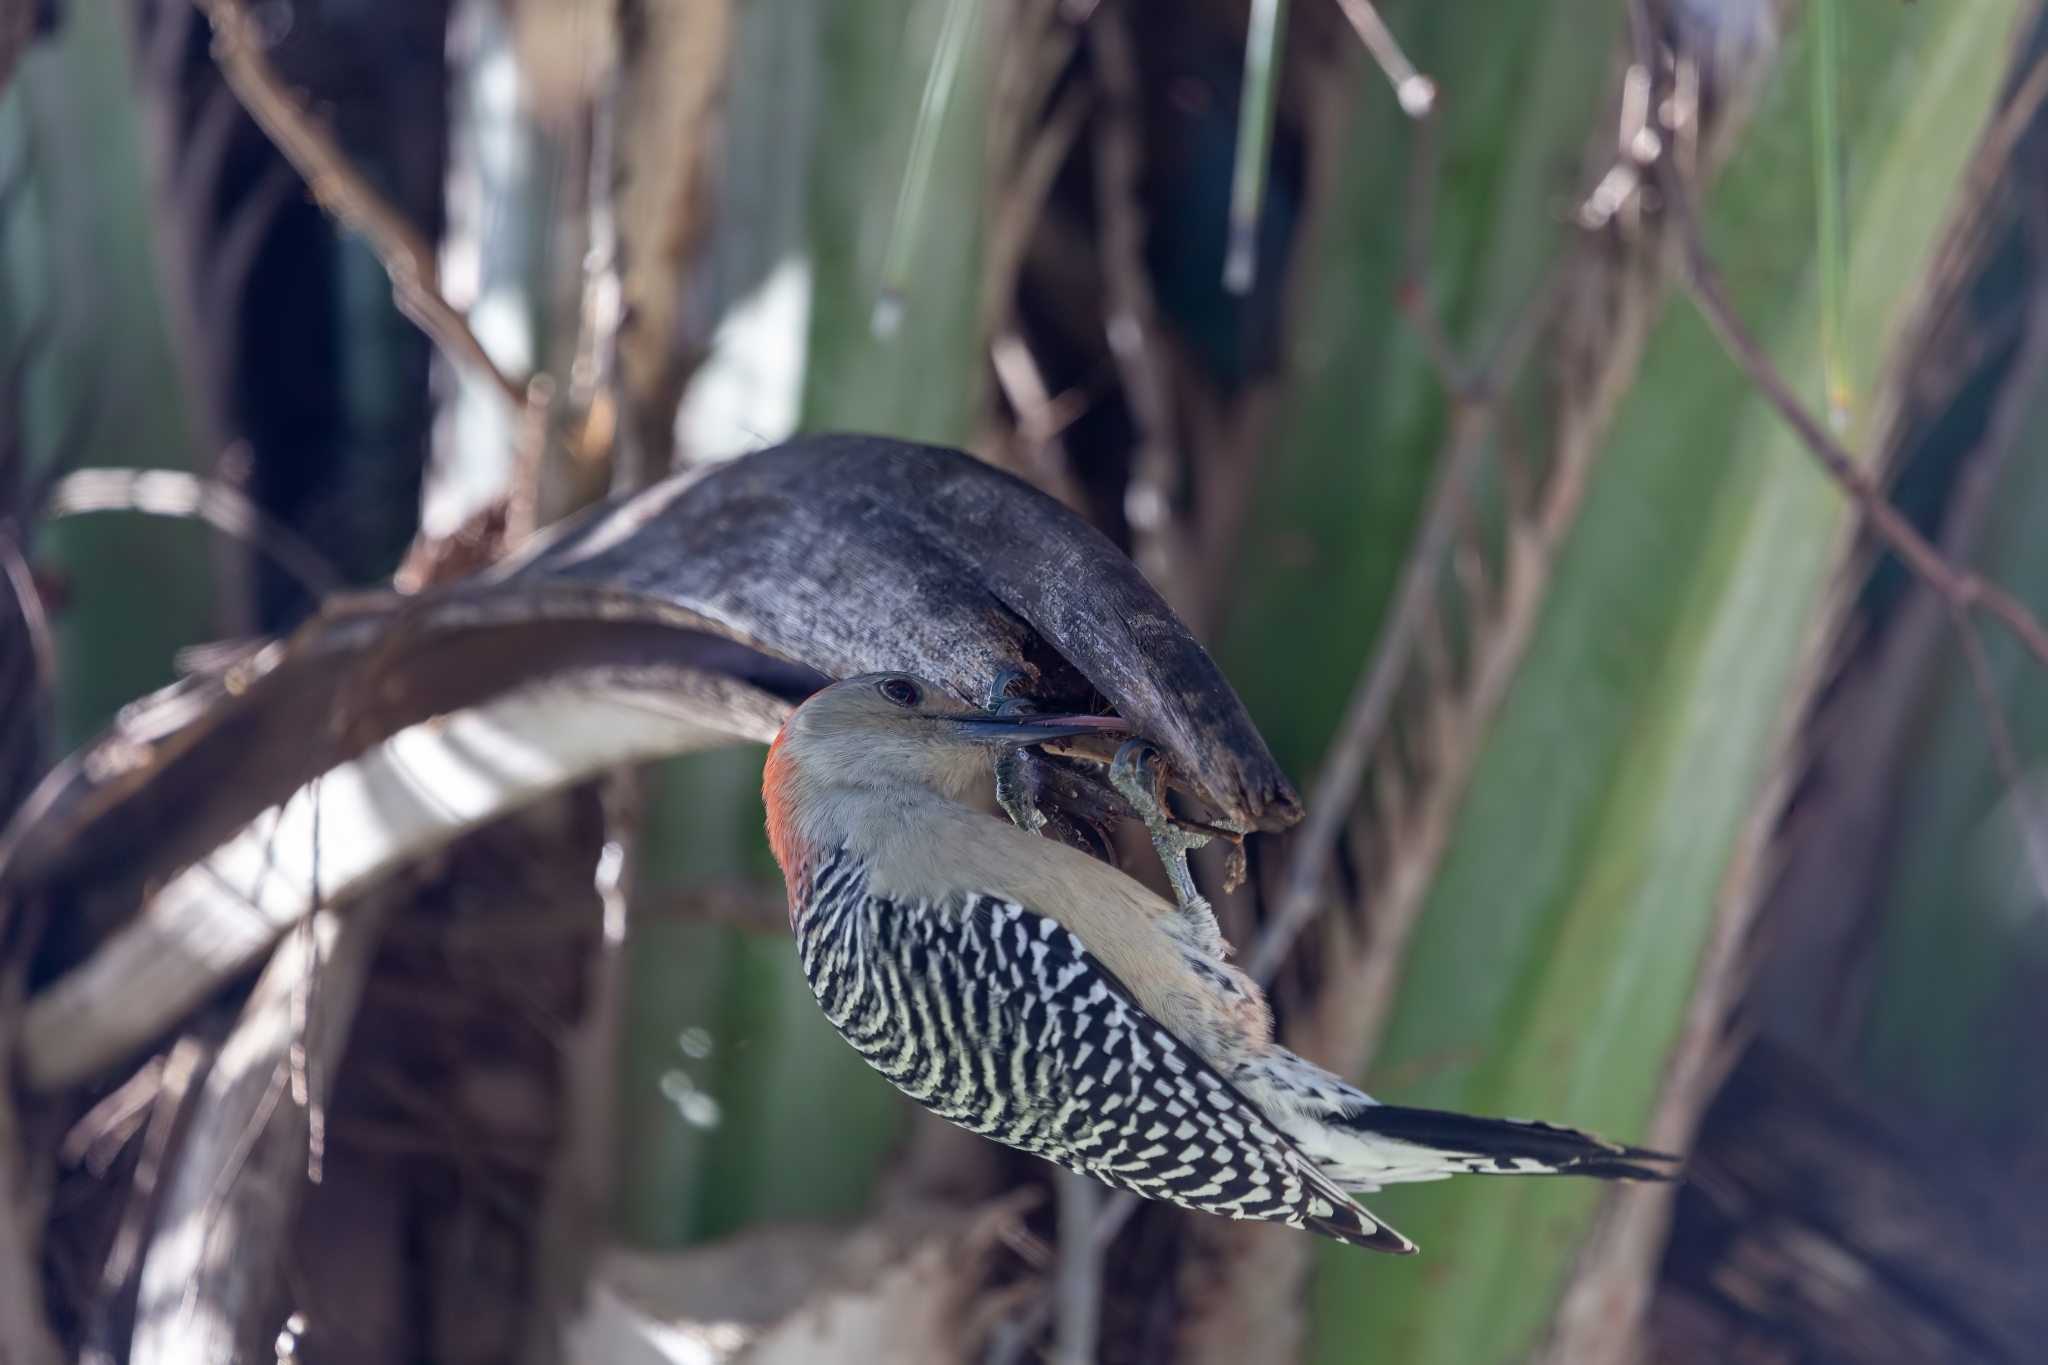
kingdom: Animalia
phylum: Chordata
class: Aves
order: Piciformes
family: Picidae
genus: Melanerpes
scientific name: Melanerpes carolinus
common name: Red-bellied woodpecker
